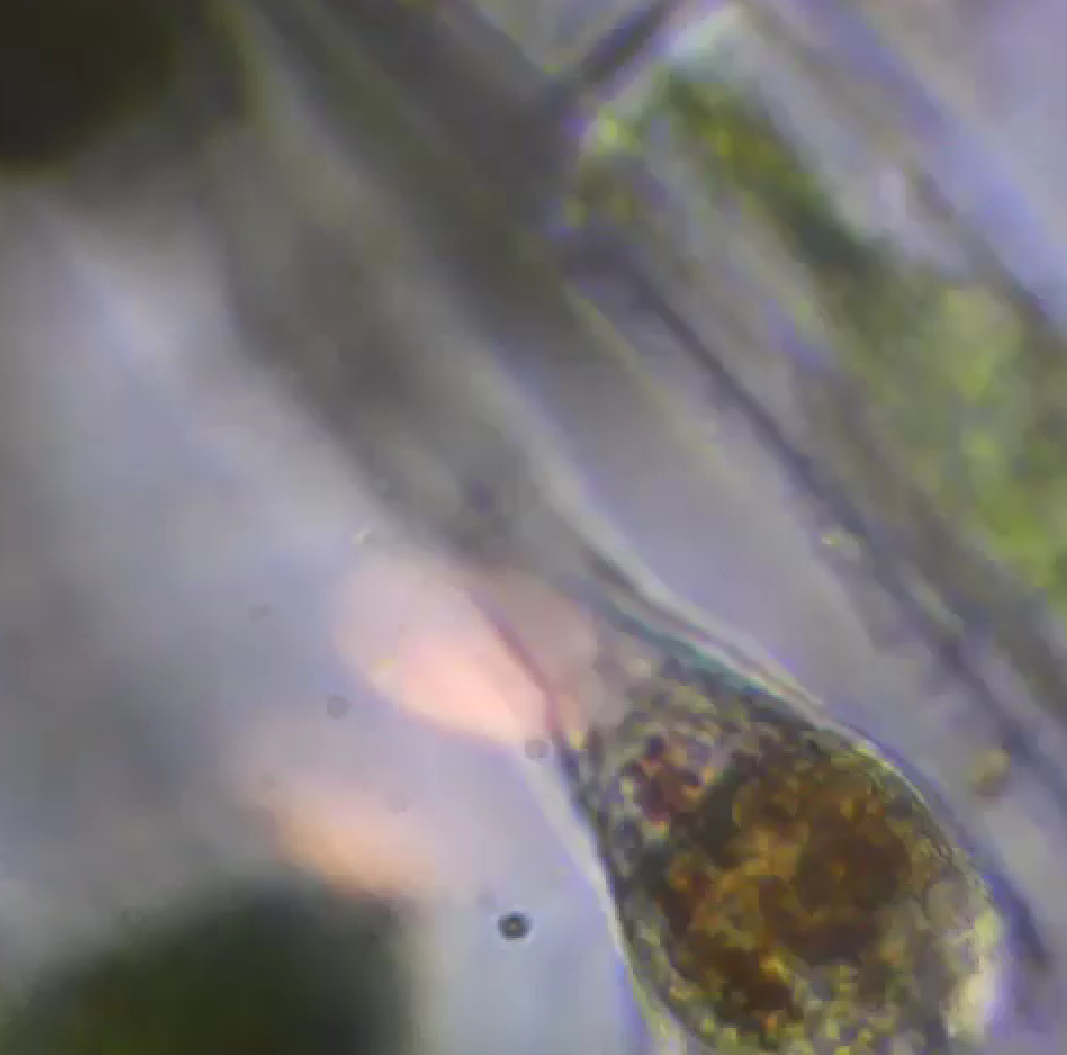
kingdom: Animalia
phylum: Rotifera
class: Eurotatoria
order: Collothecacea
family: Collothecidae
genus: Collotheca
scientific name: Collotheca
